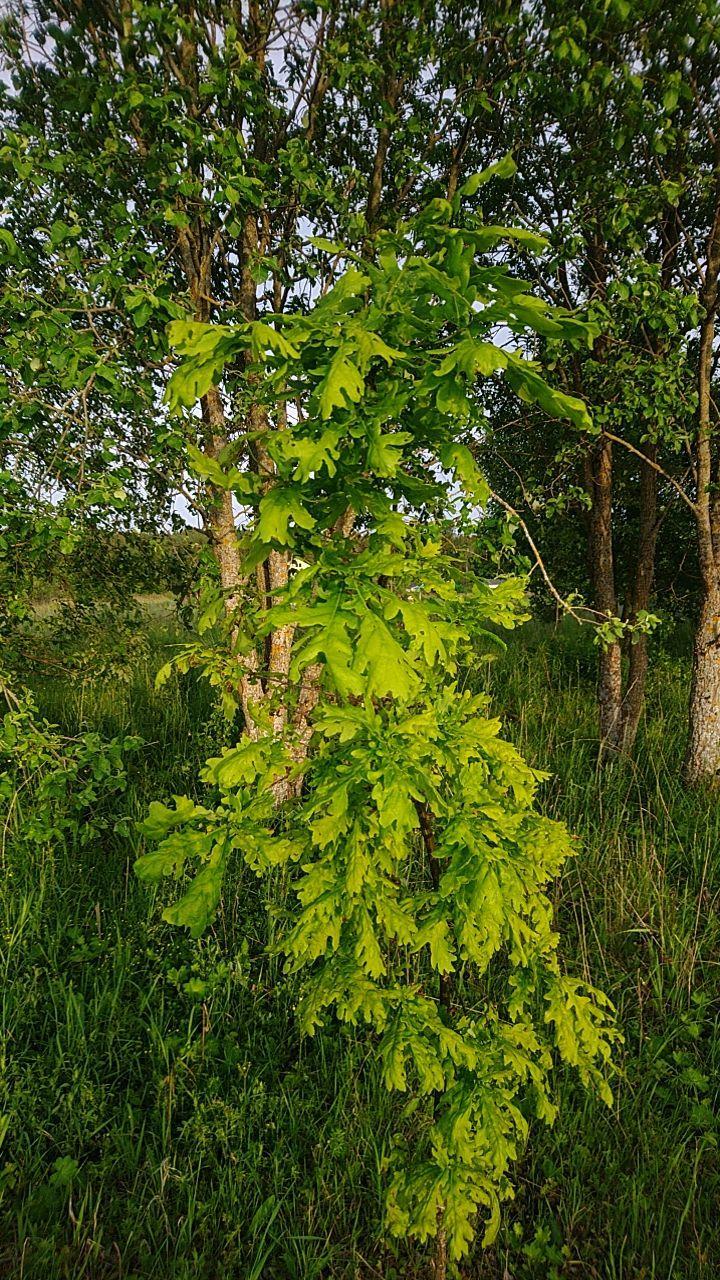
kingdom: Plantae
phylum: Tracheophyta
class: Magnoliopsida
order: Fagales
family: Fagaceae
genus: Quercus
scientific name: Quercus robur
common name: Pedunculate oak
